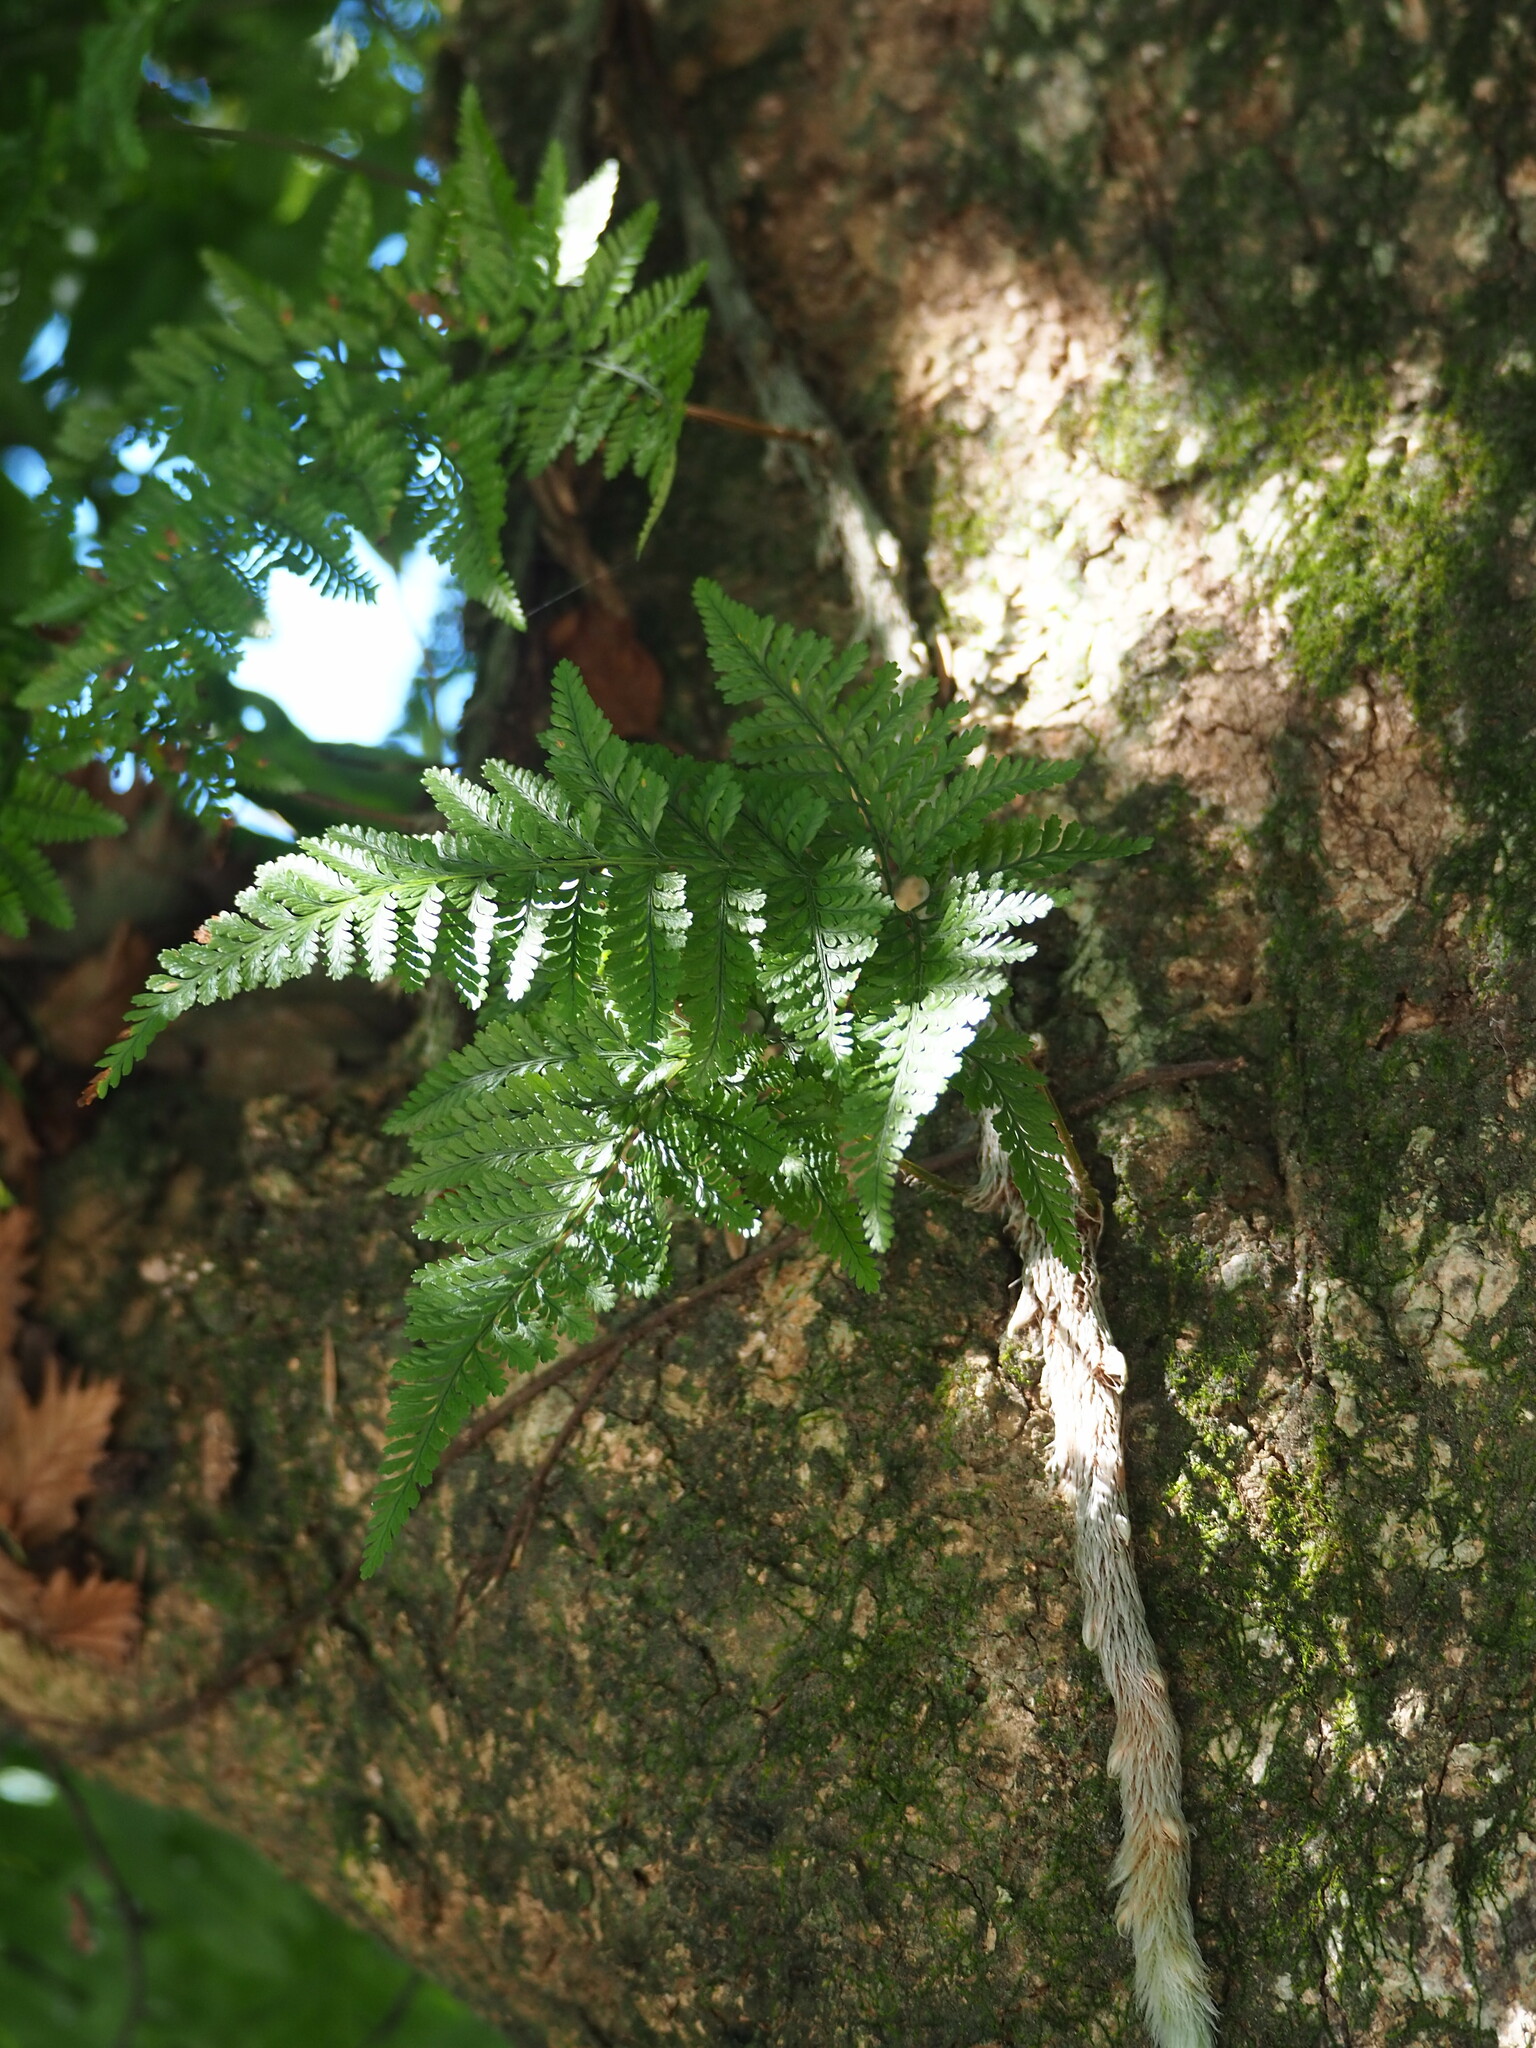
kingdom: Plantae
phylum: Tracheophyta
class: Polypodiopsida
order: Polypodiales
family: Davalliaceae
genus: Davallia
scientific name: Davallia griffithiana
